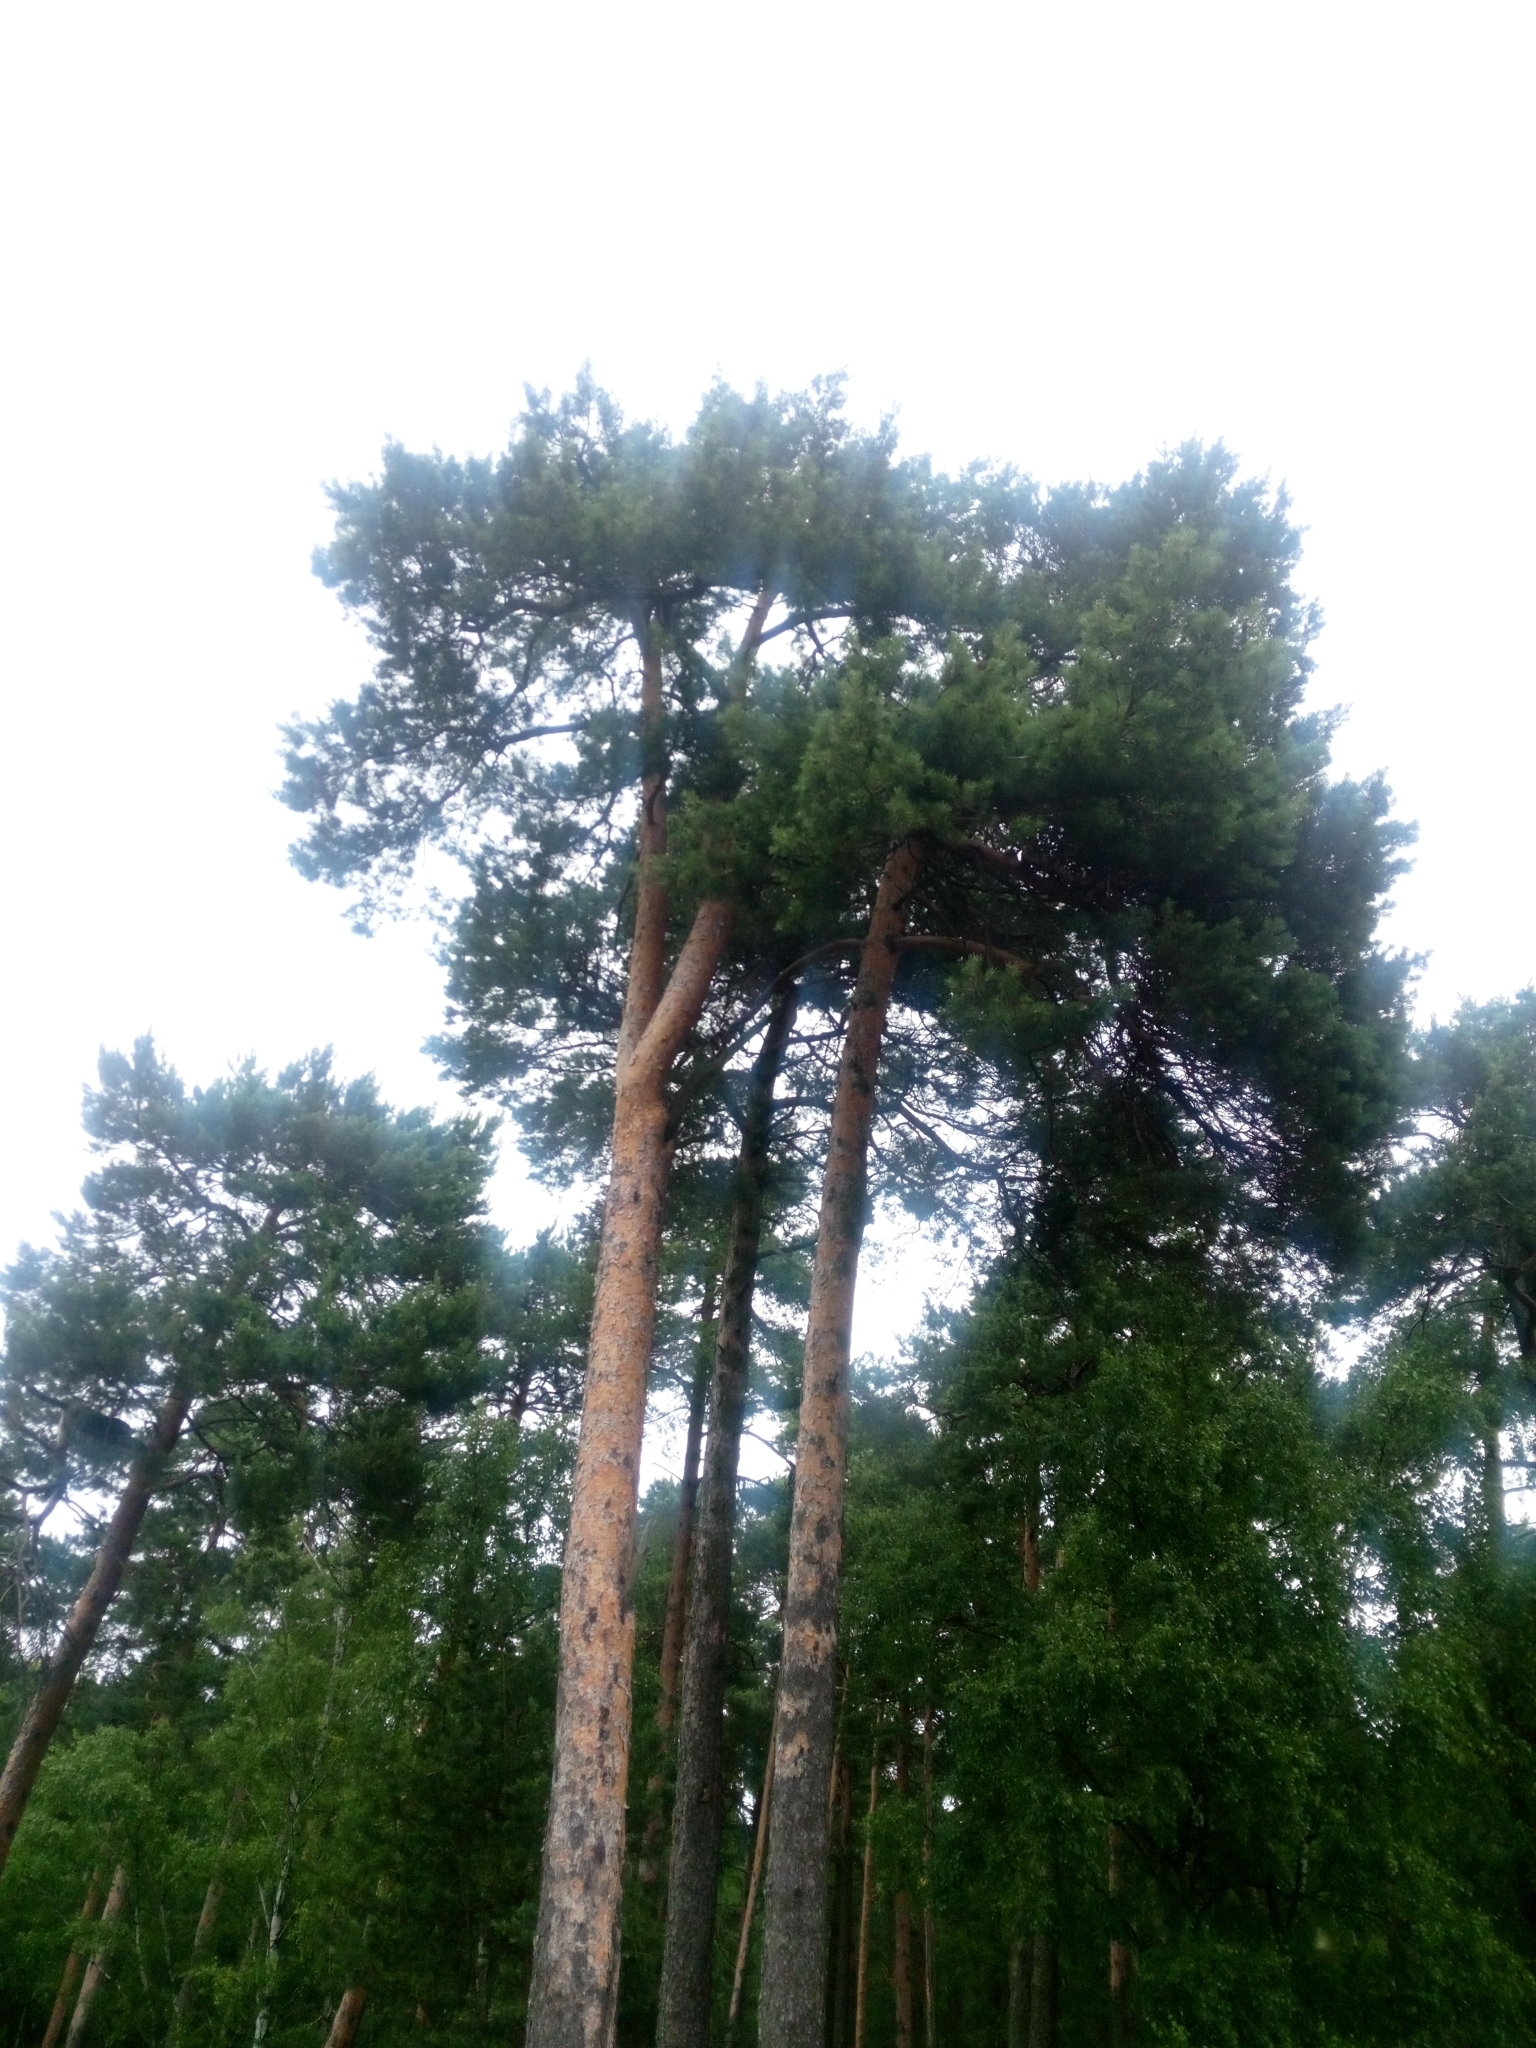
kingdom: Plantae
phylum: Tracheophyta
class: Pinopsida
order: Pinales
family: Pinaceae
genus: Pinus
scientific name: Pinus sylvestris
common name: Scots pine
